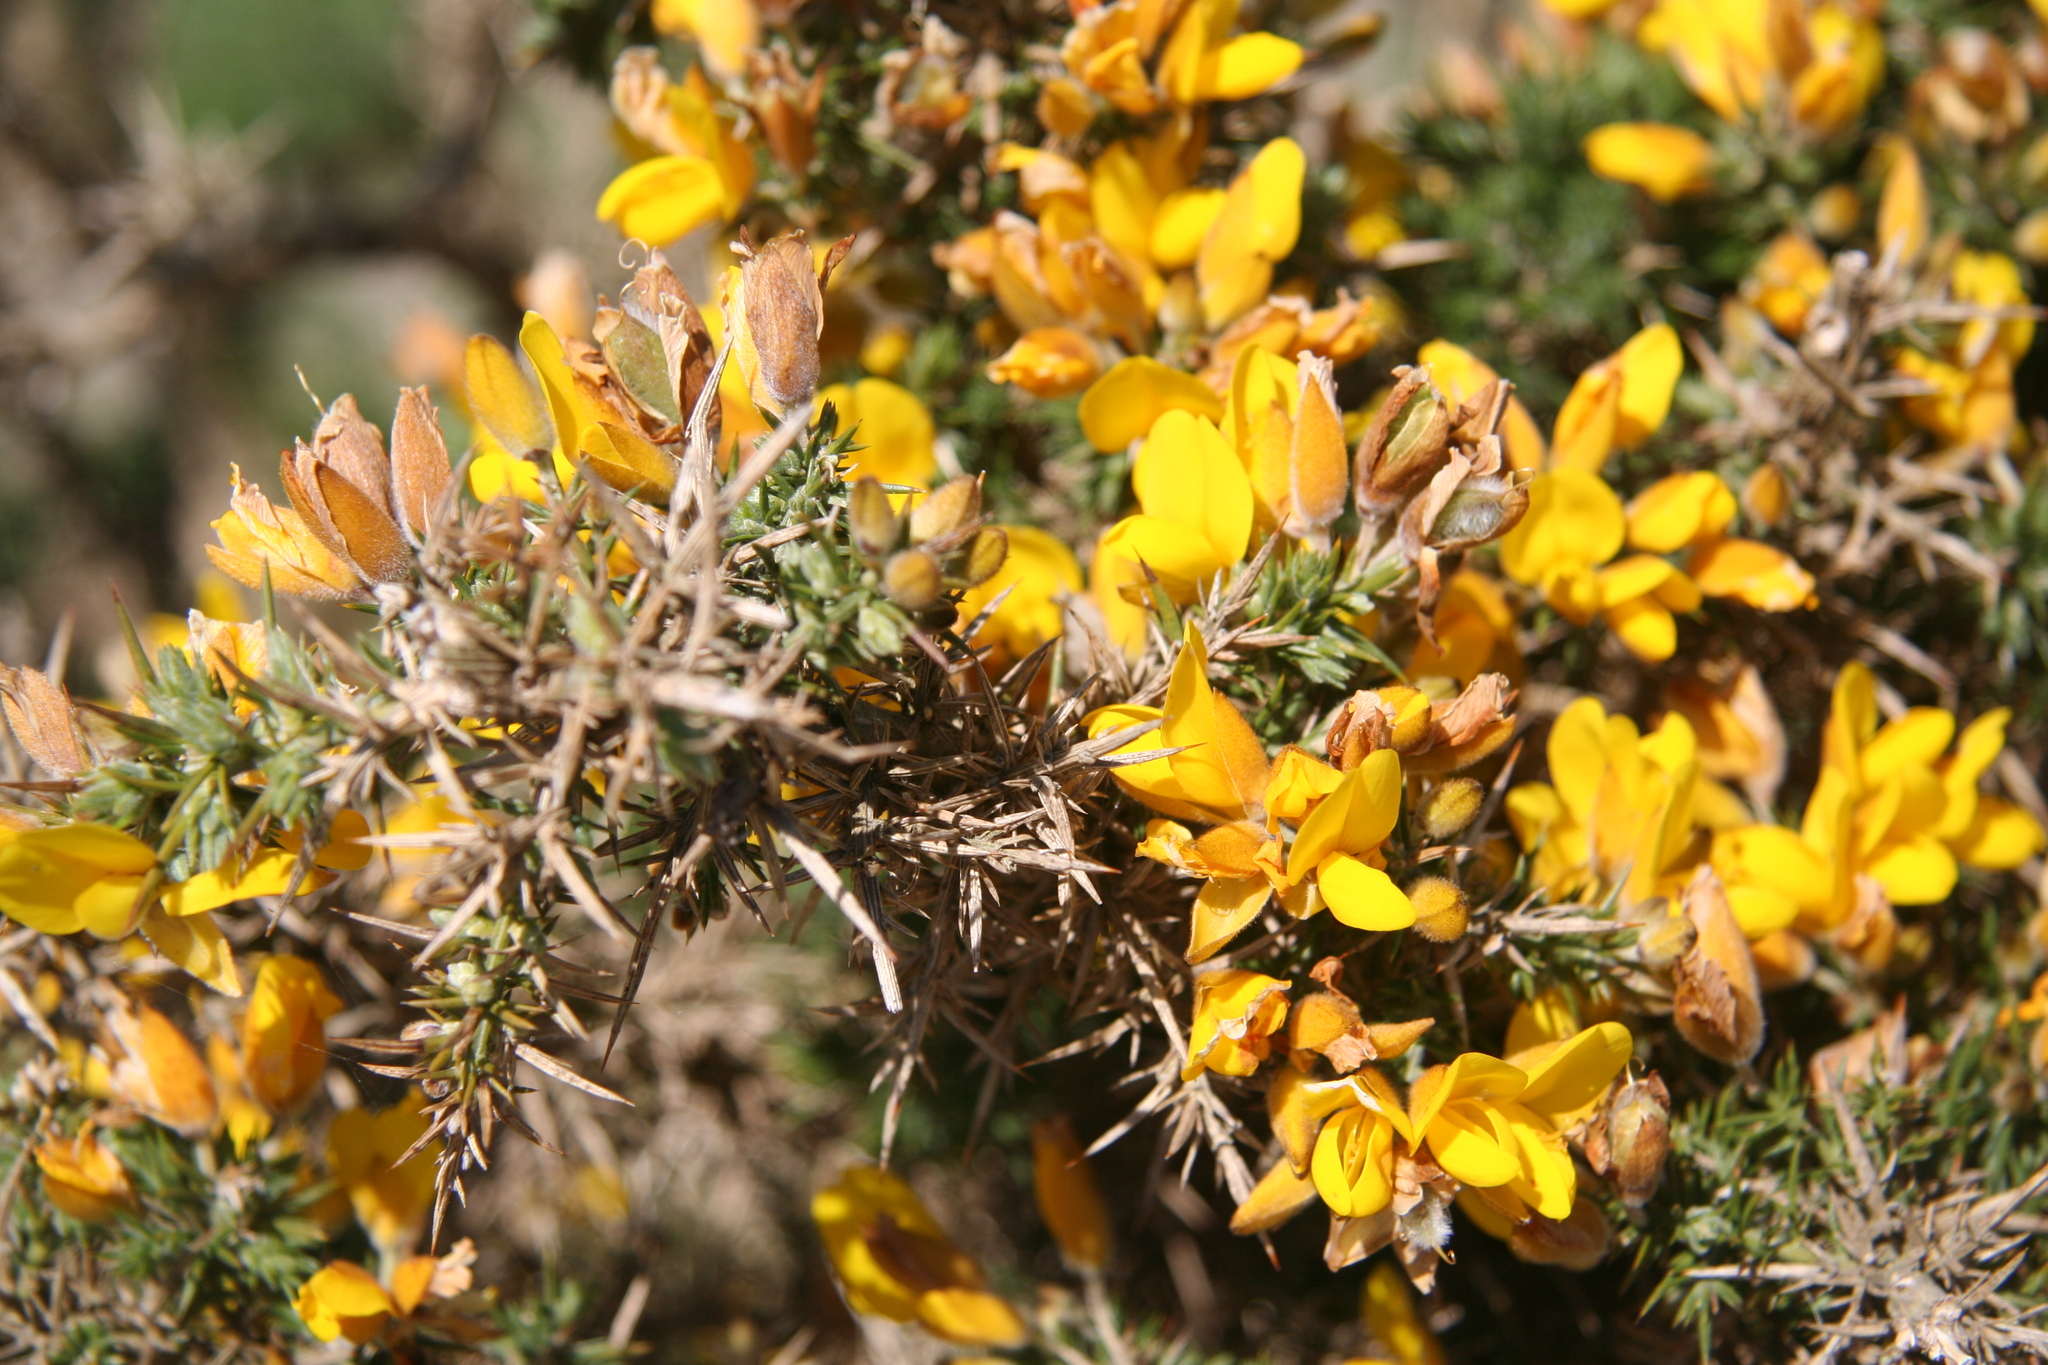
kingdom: Plantae
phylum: Tracheophyta
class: Magnoliopsida
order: Fabales
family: Fabaceae
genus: Ulex
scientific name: Ulex europaeus
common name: Common gorse
